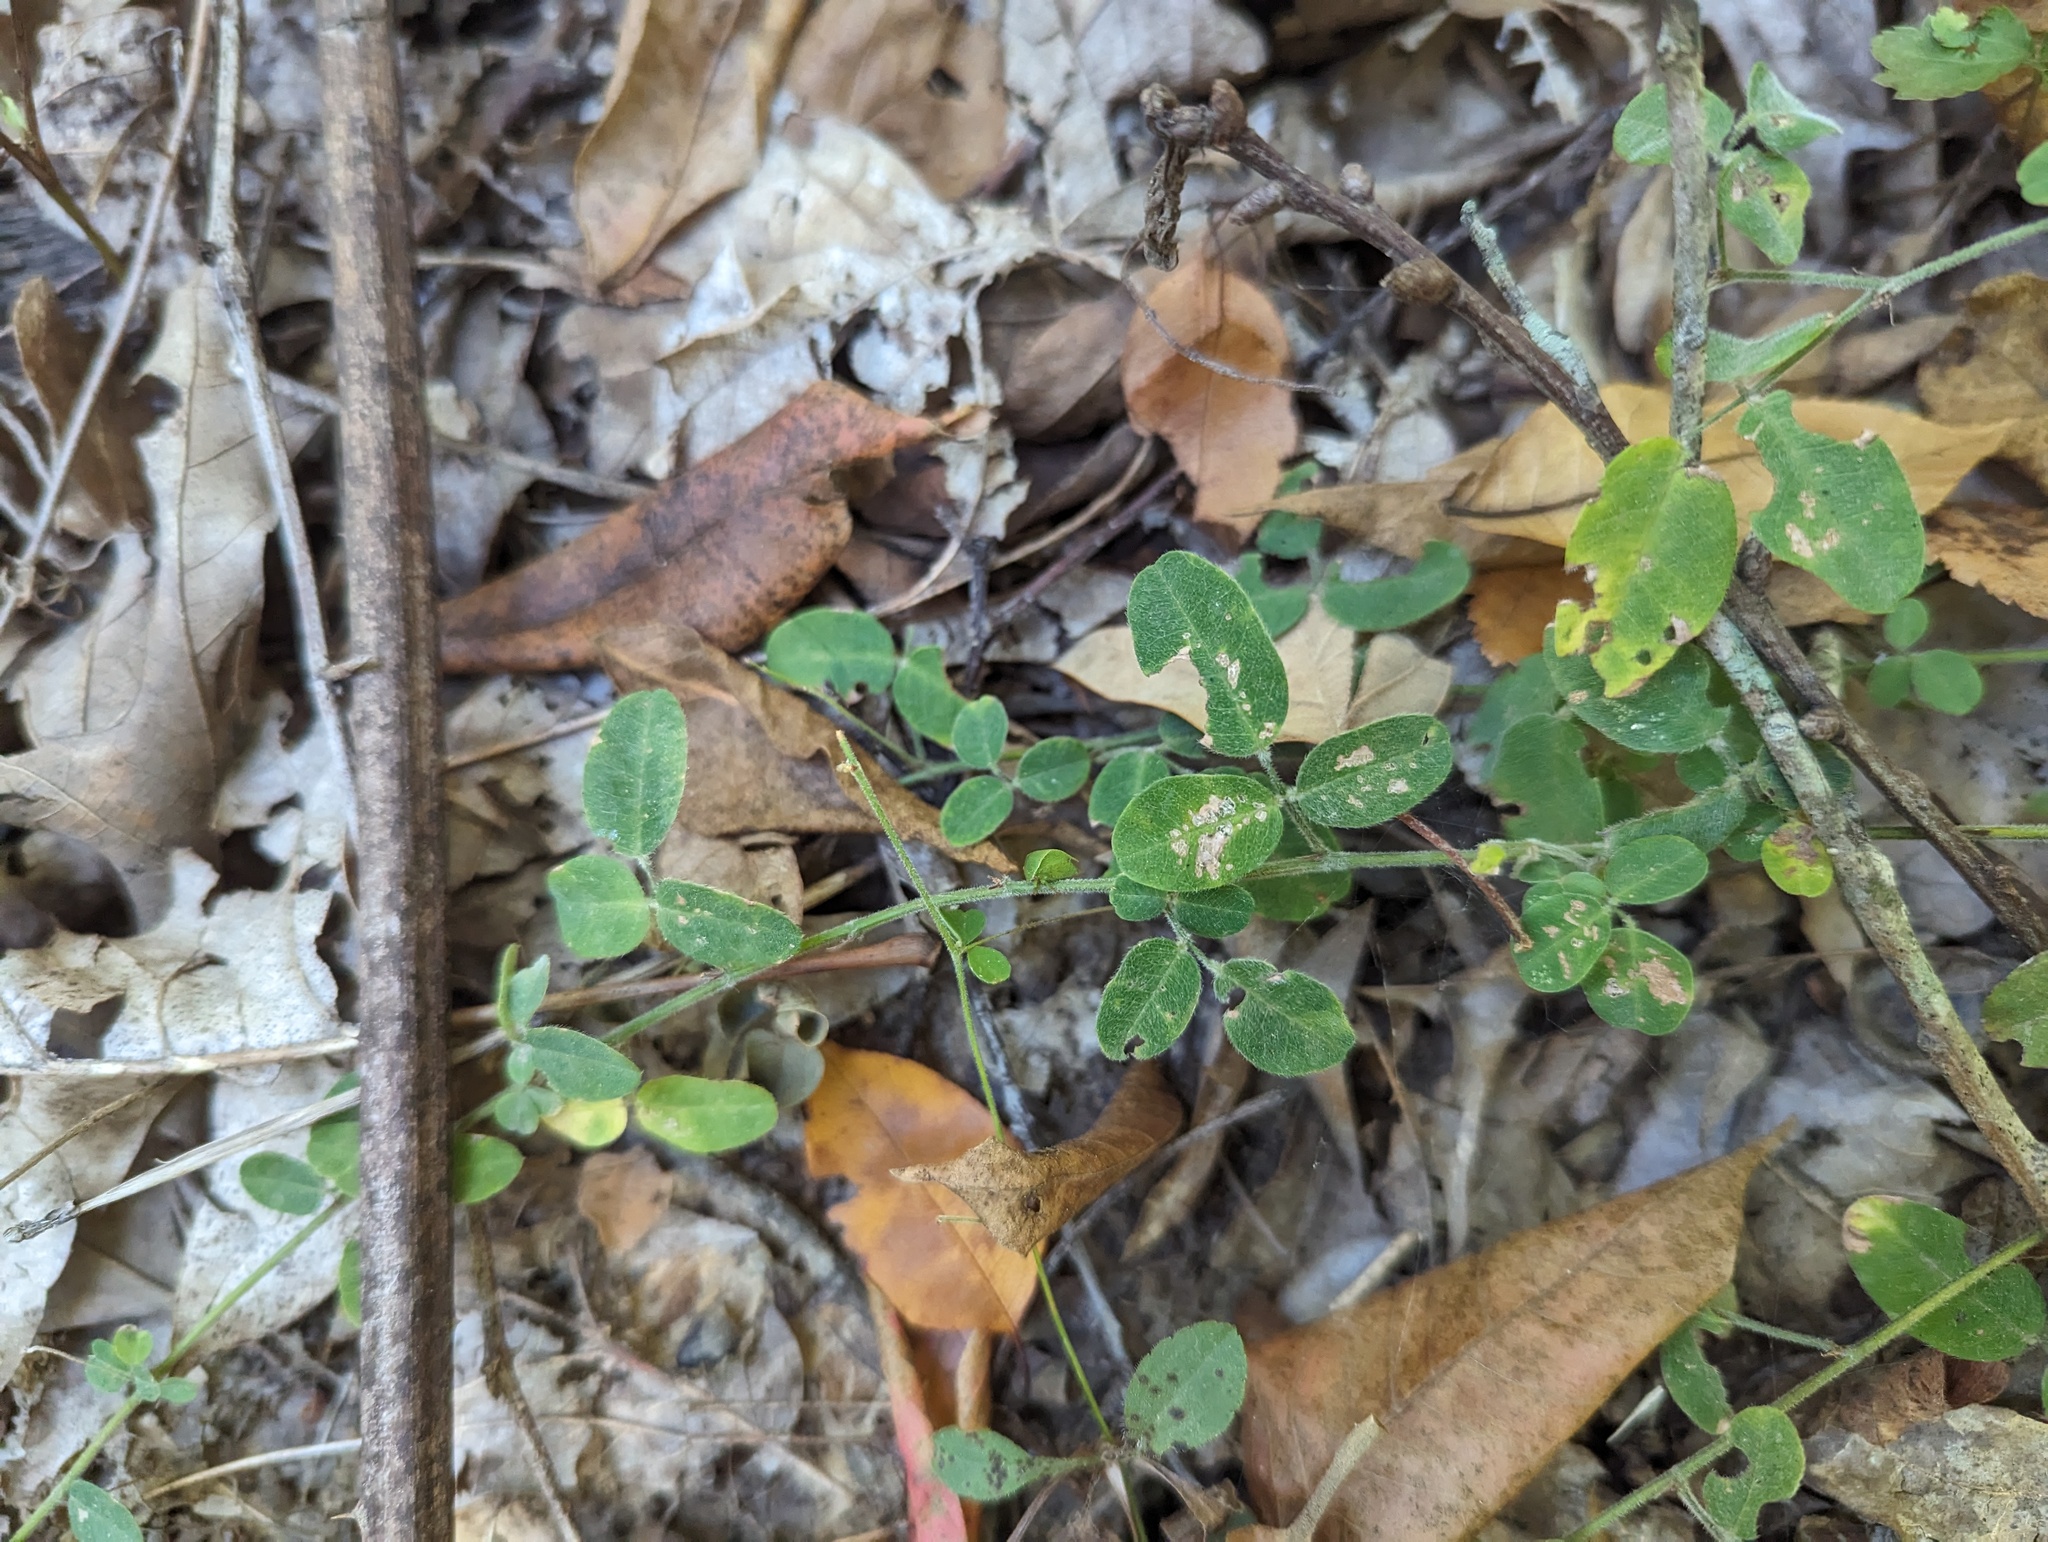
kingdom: Plantae
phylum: Tracheophyta
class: Magnoliopsida
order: Fabales
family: Fabaceae
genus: Lespedeza
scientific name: Lespedeza procumbens
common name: Downy trailing bush-clover
